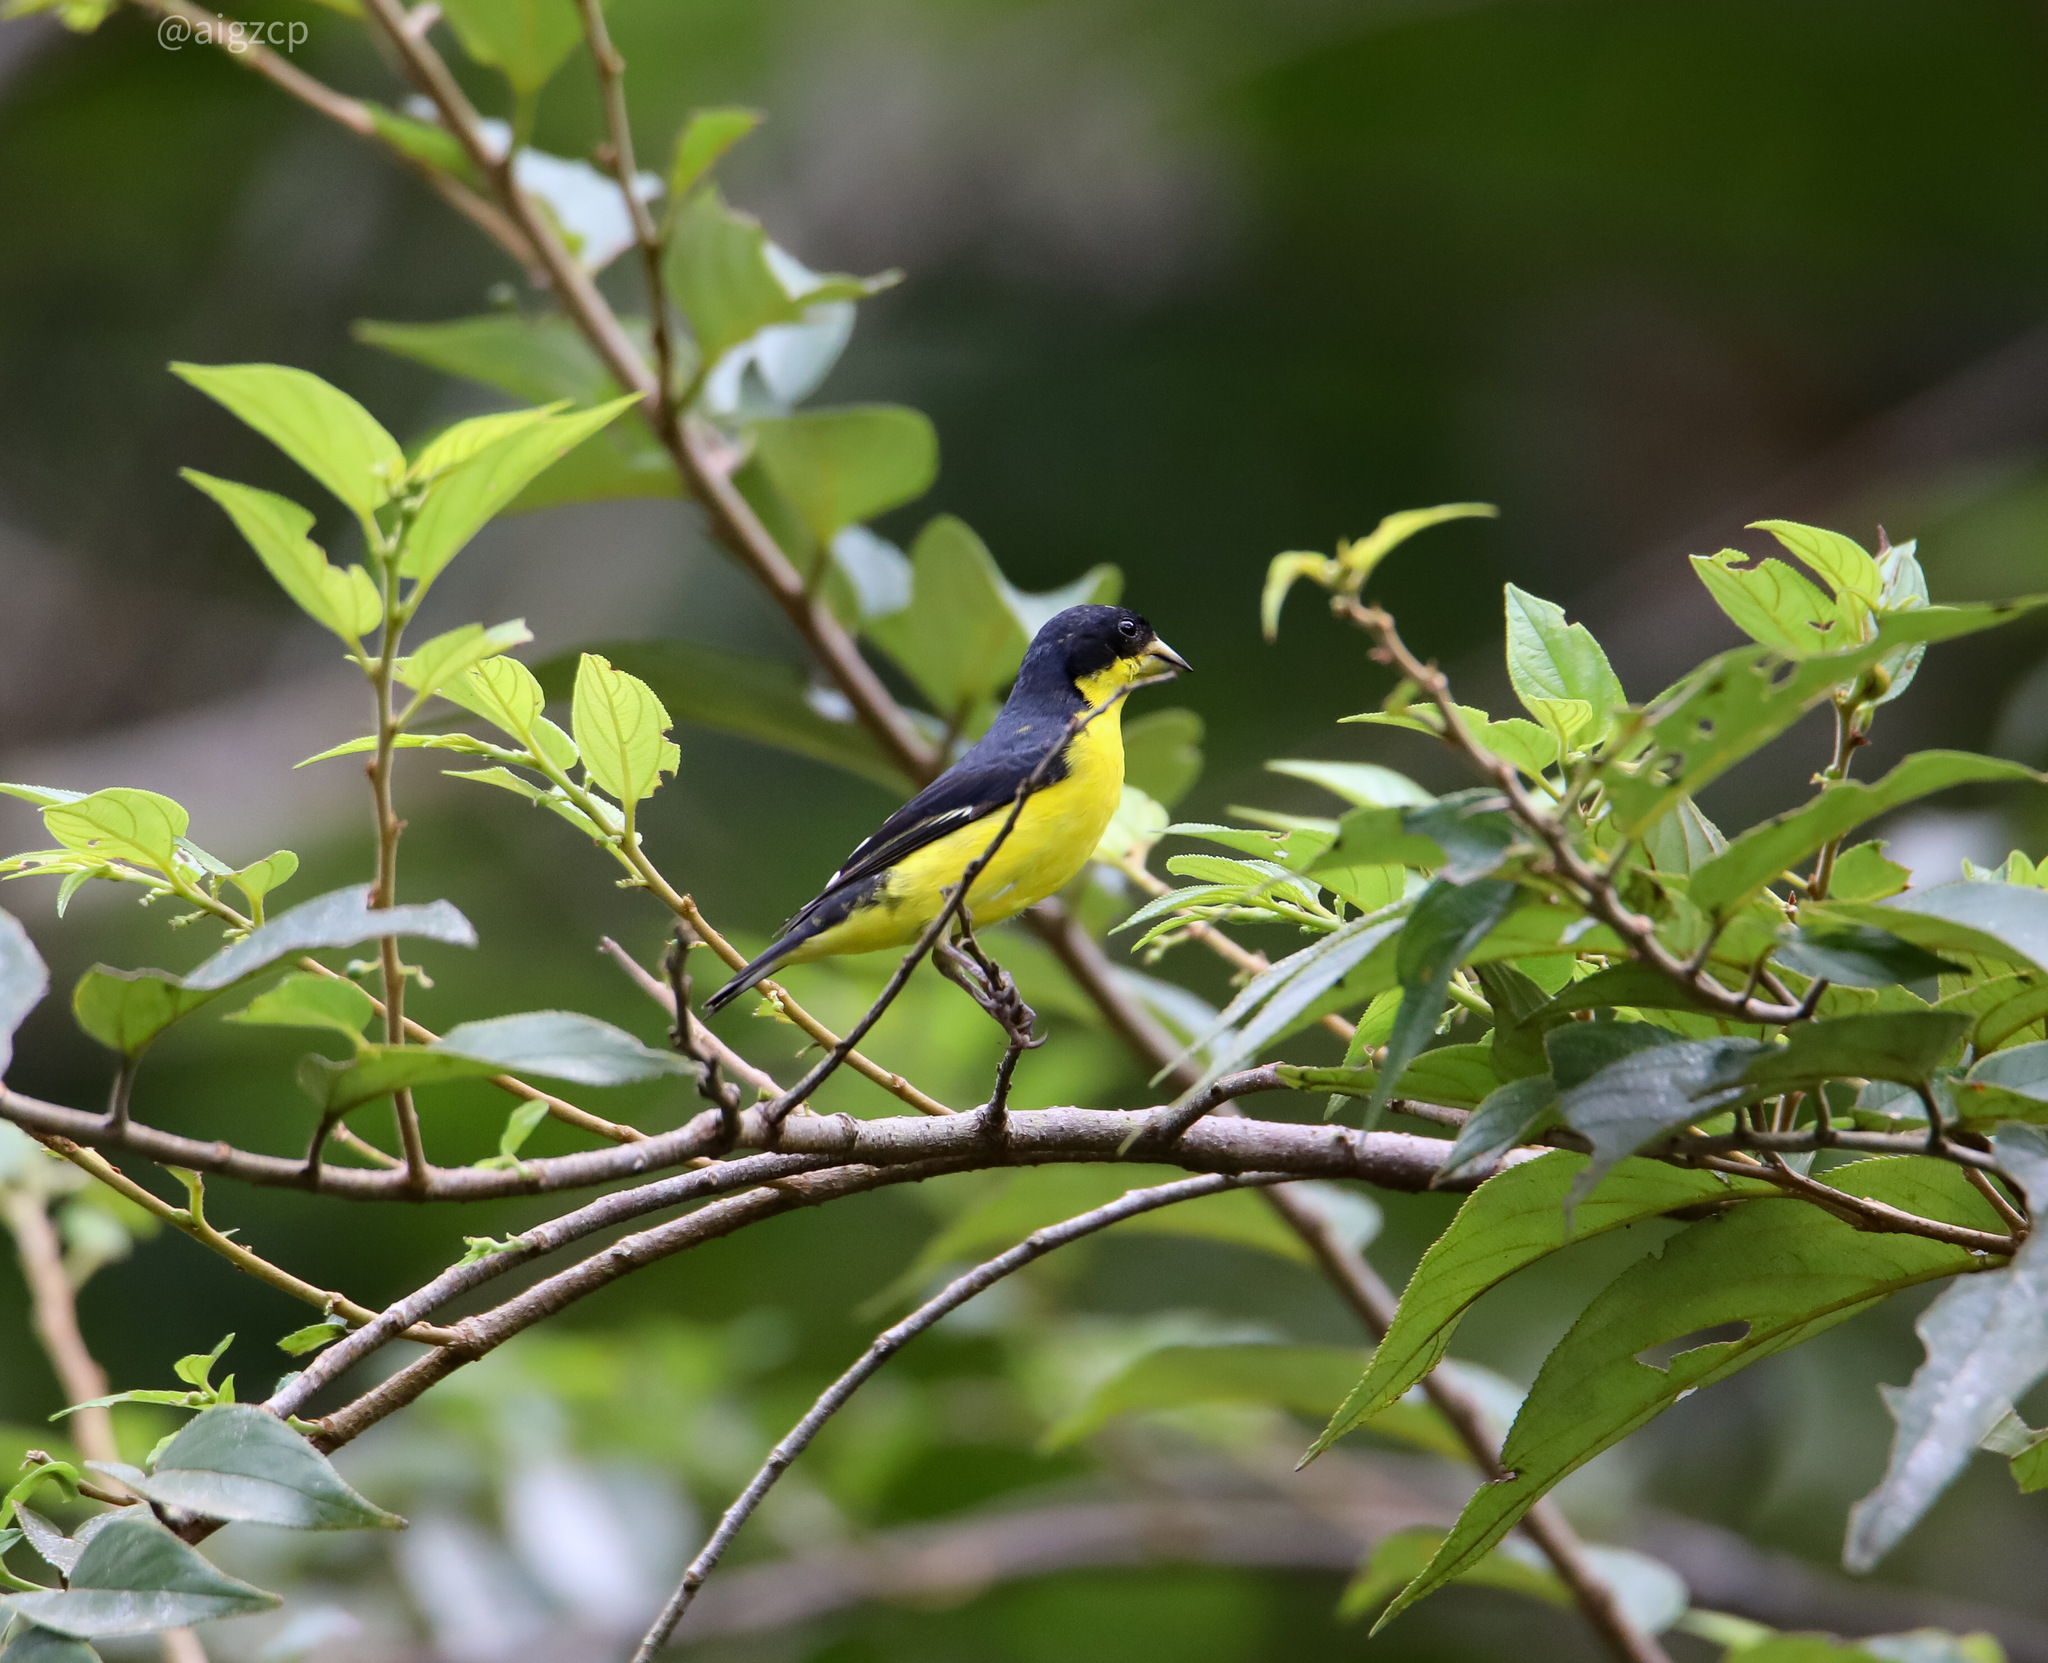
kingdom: Animalia
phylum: Chordata
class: Aves
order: Passeriformes
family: Fringillidae
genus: Spinus
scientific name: Spinus psaltria
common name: Lesser goldfinch
